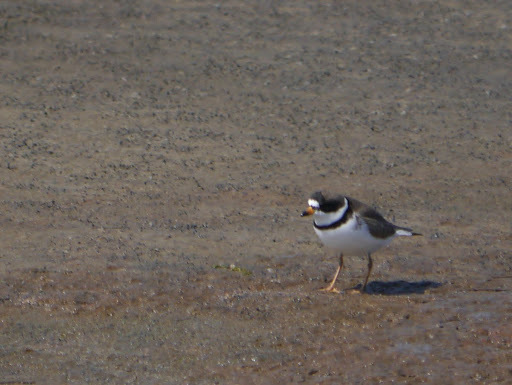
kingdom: Animalia
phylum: Chordata
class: Aves
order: Charadriiformes
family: Charadriidae
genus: Charadrius
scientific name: Charadrius semipalmatus
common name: Semipalmated plover
